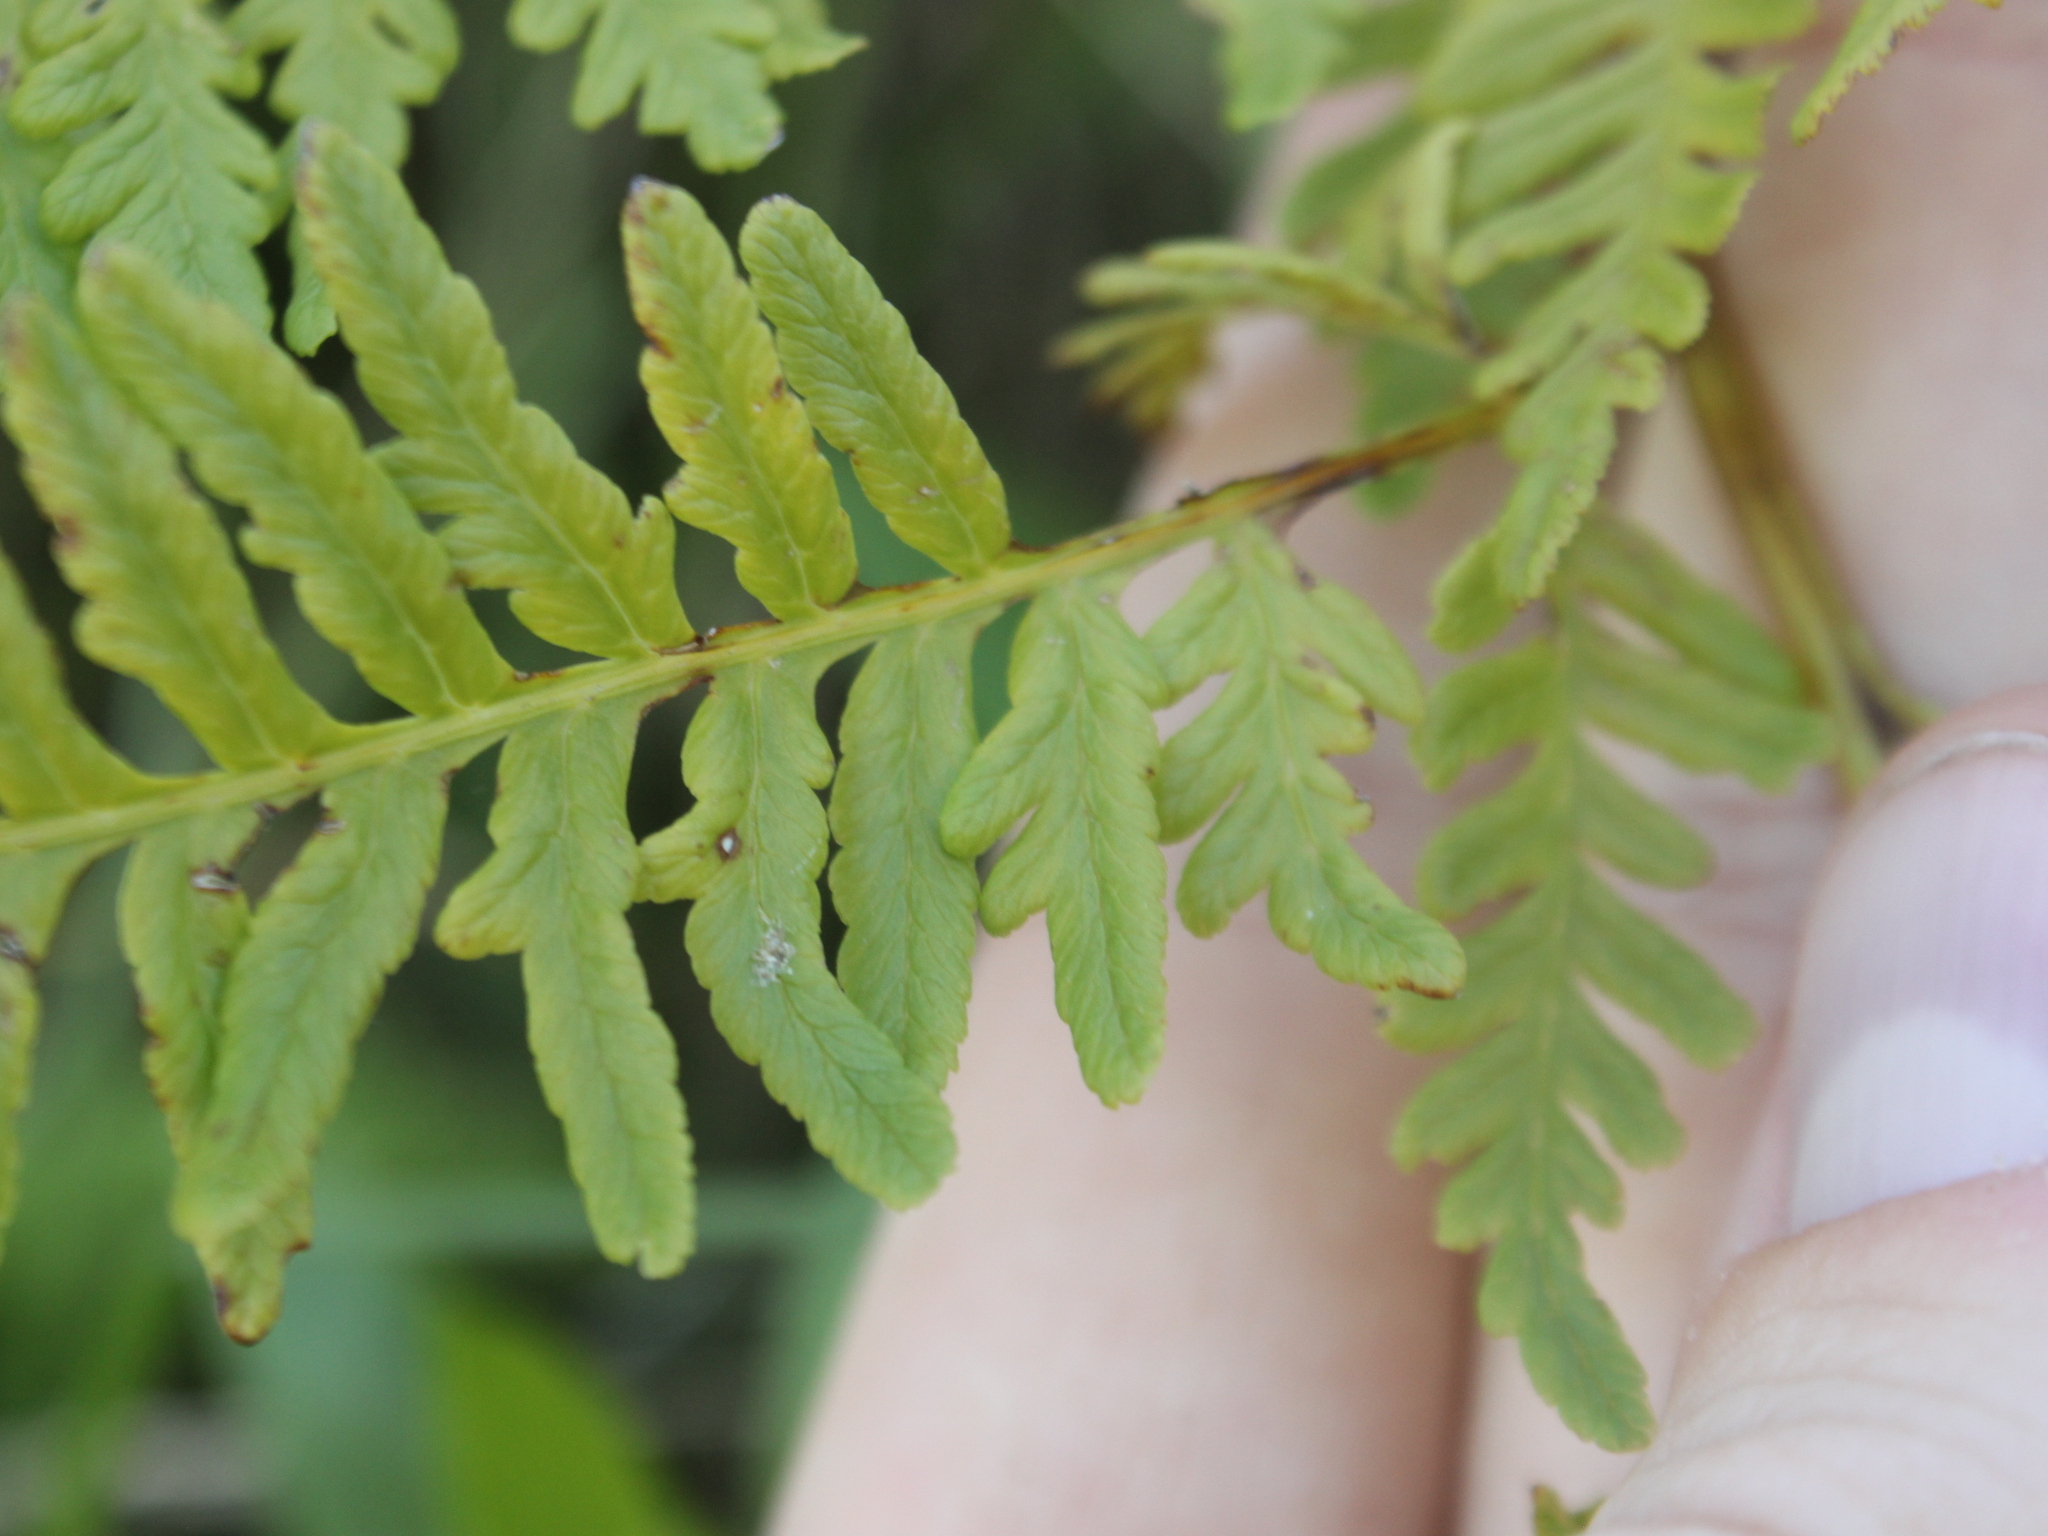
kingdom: Plantae
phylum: Tracheophyta
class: Polypodiopsida
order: Polypodiales
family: Dennstaedtiaceae
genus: Paesia
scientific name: Paesia scaberula
